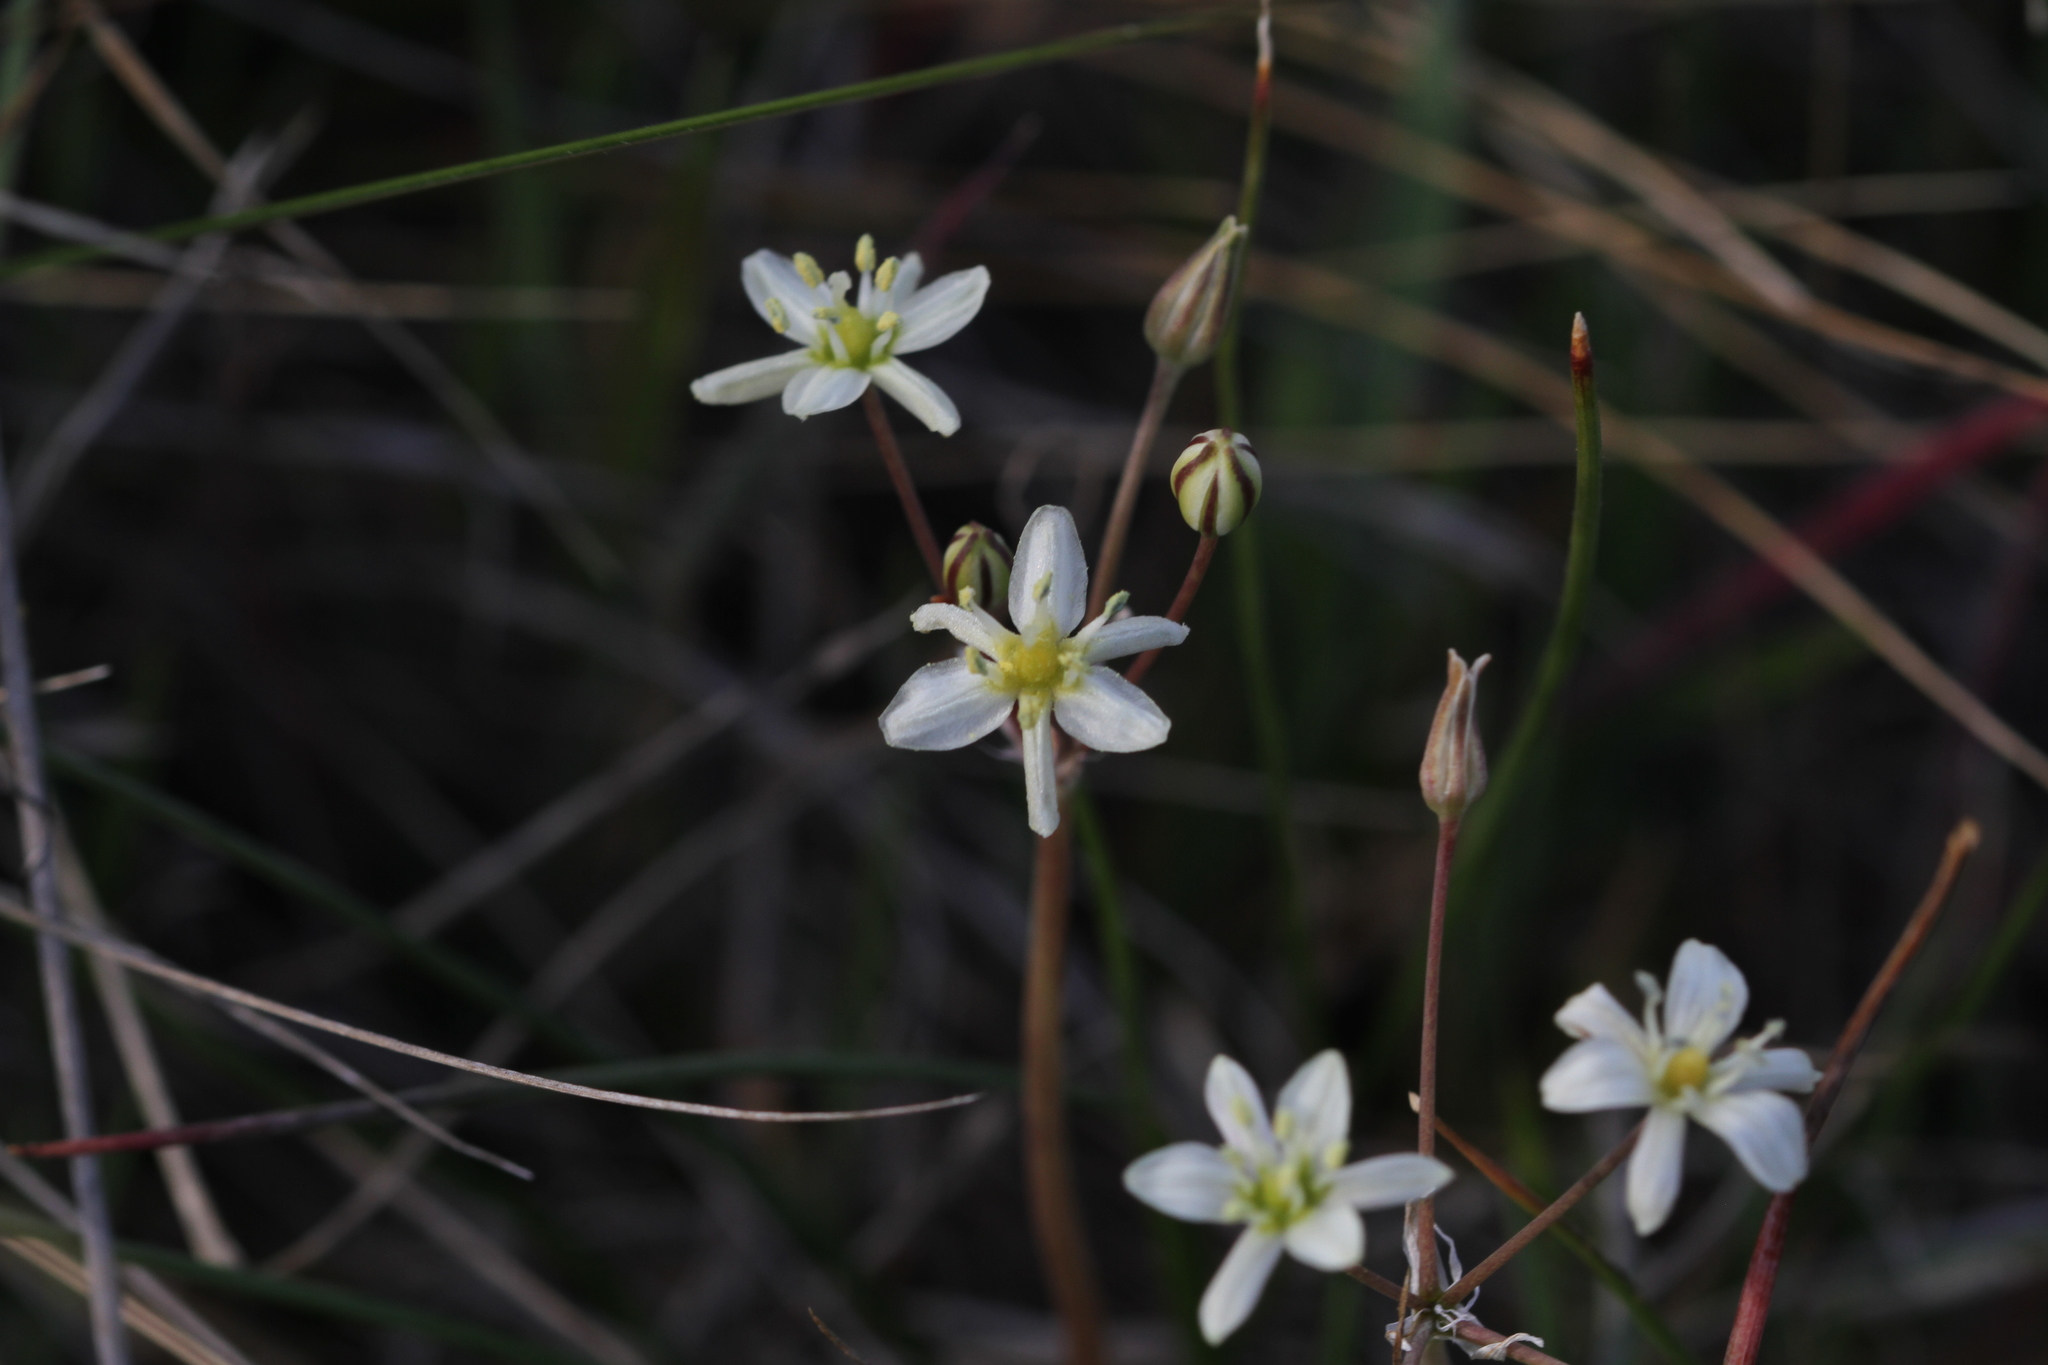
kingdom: Plantae
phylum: Tracheophyta
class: Liliopsida
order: Asparagales
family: Asparagaceae
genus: Muilla
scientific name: Muilla maritima
